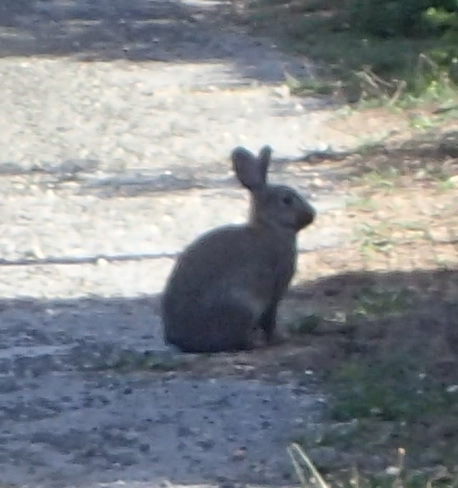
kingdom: Animalia
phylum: Chordata
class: Mammalia
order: Lagomorpha
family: Leporidae
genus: Oryctolagus
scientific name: Oryctolagus cuniculus
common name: European rabbit
